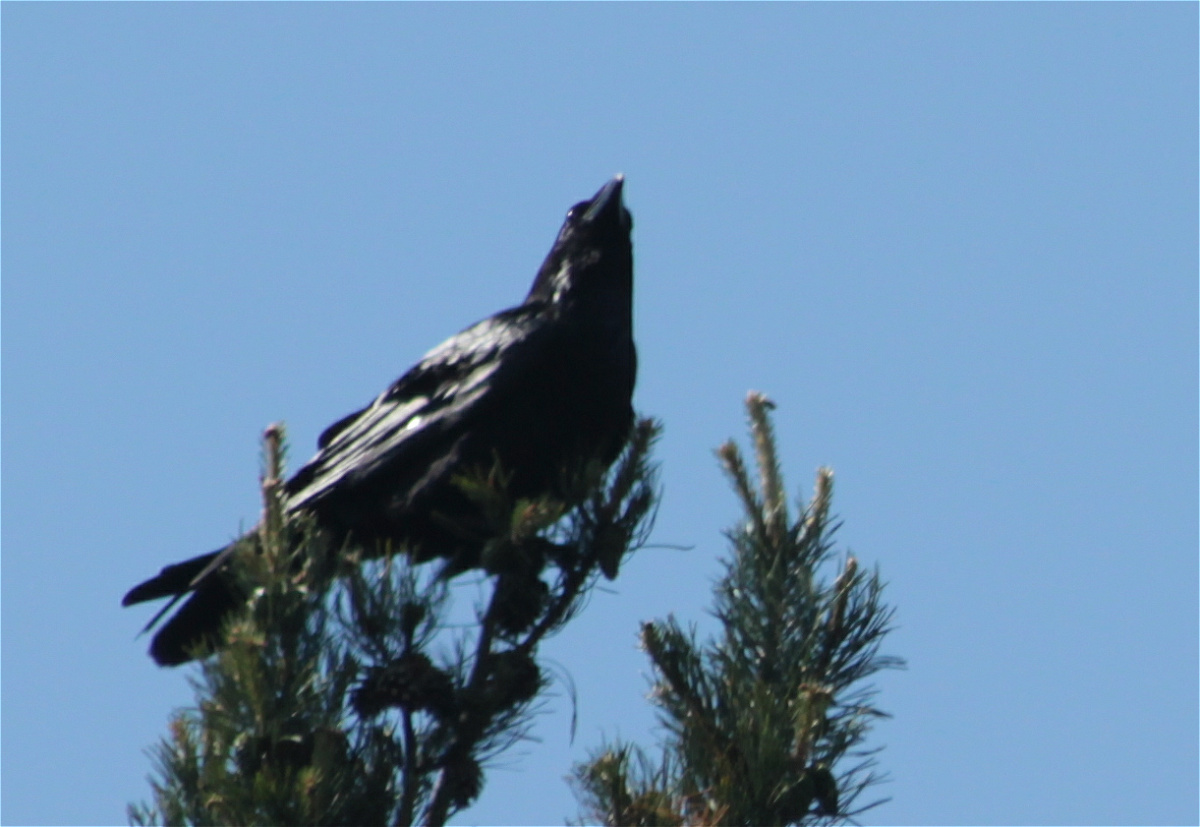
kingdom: Animalia
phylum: Chordata
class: Aves
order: Passeriformes
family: Corvidae
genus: Corvus
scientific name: Corvus corax
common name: Common raven
